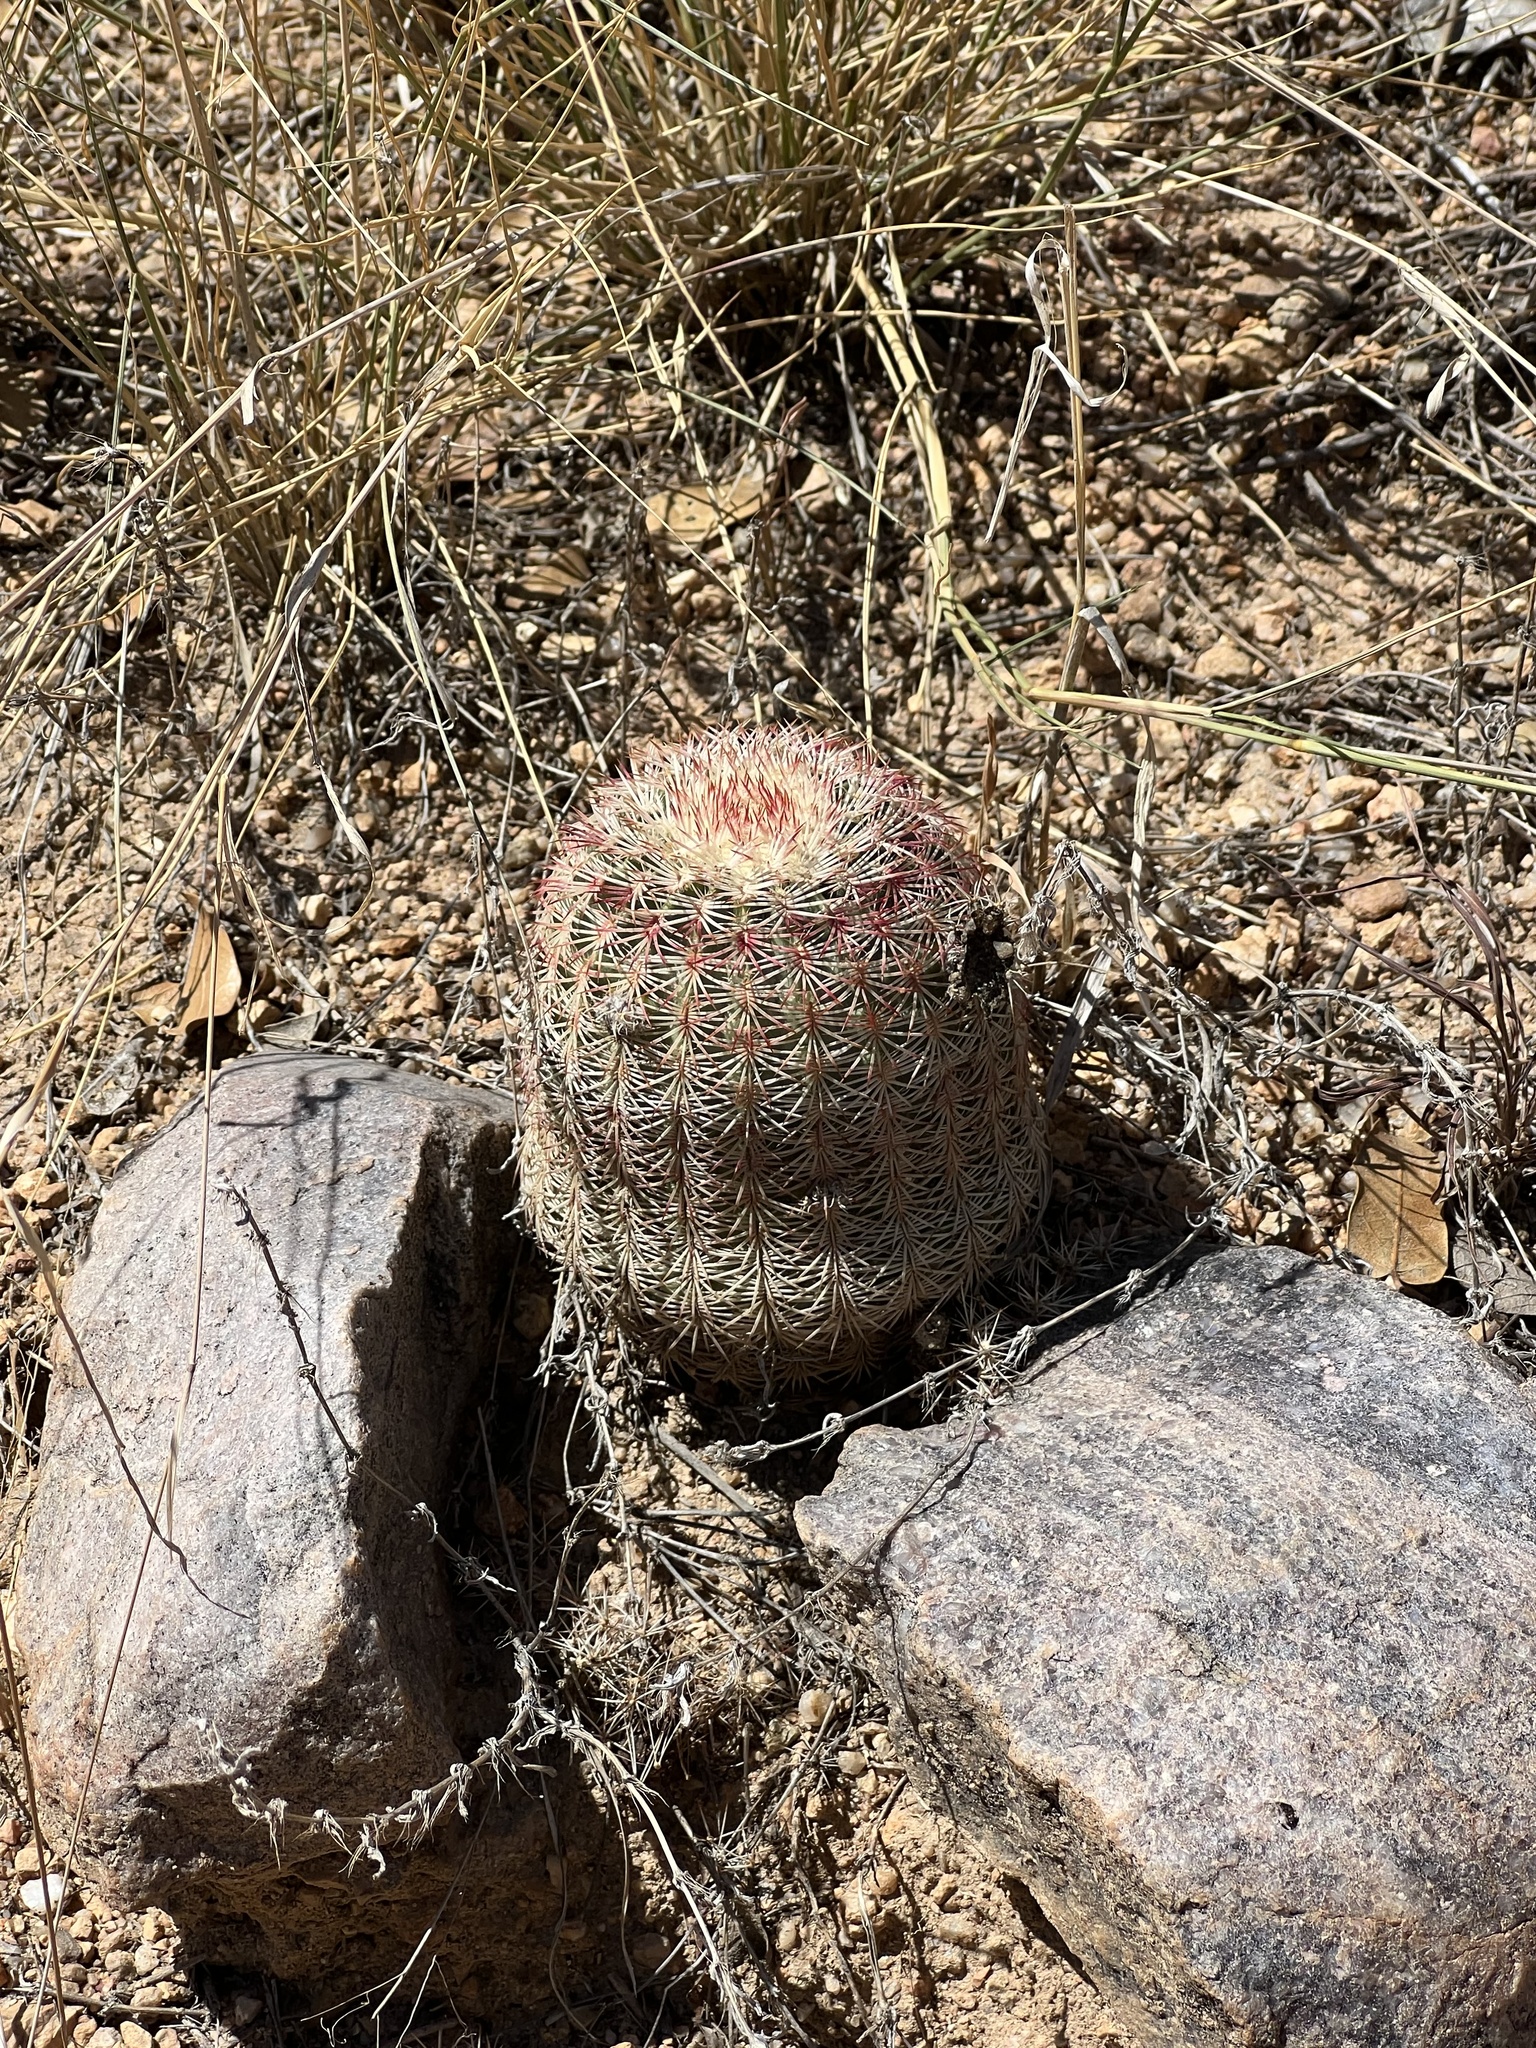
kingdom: Plantae
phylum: Tracheophyta
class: Magnoliopsida
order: Caryophyllales
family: Cactaceae
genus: Echinocereus
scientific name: Echinocereus rigidissimus
